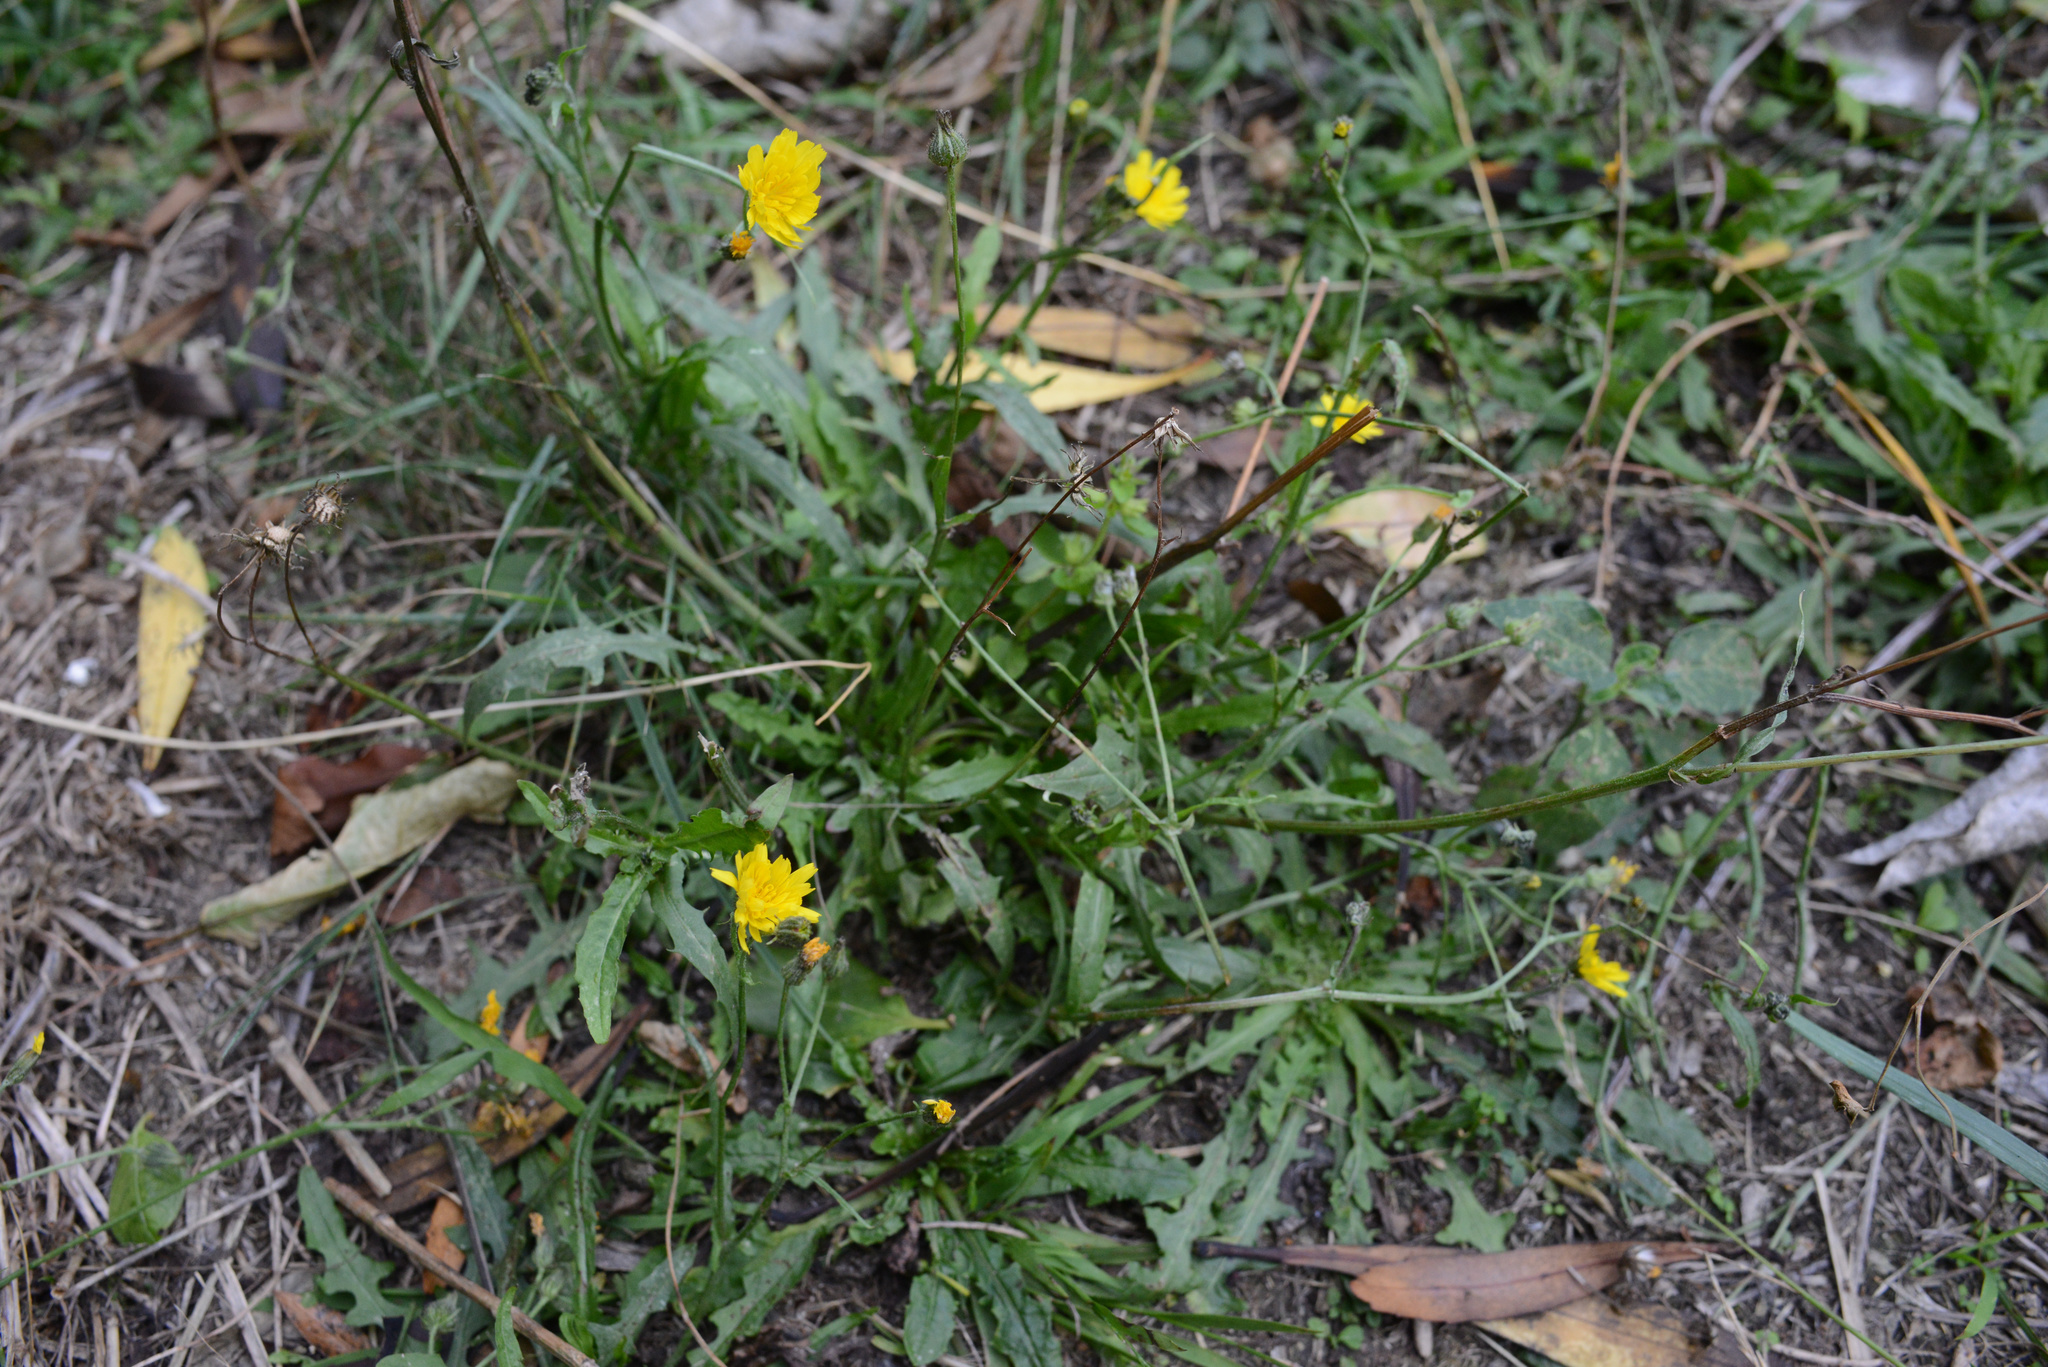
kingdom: Plantae
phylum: Tracheophyta
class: Magnoliopsida
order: Asterales
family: Asteraceae
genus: Crepis
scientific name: Crepis capillaris
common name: Smooth hawksbeard
